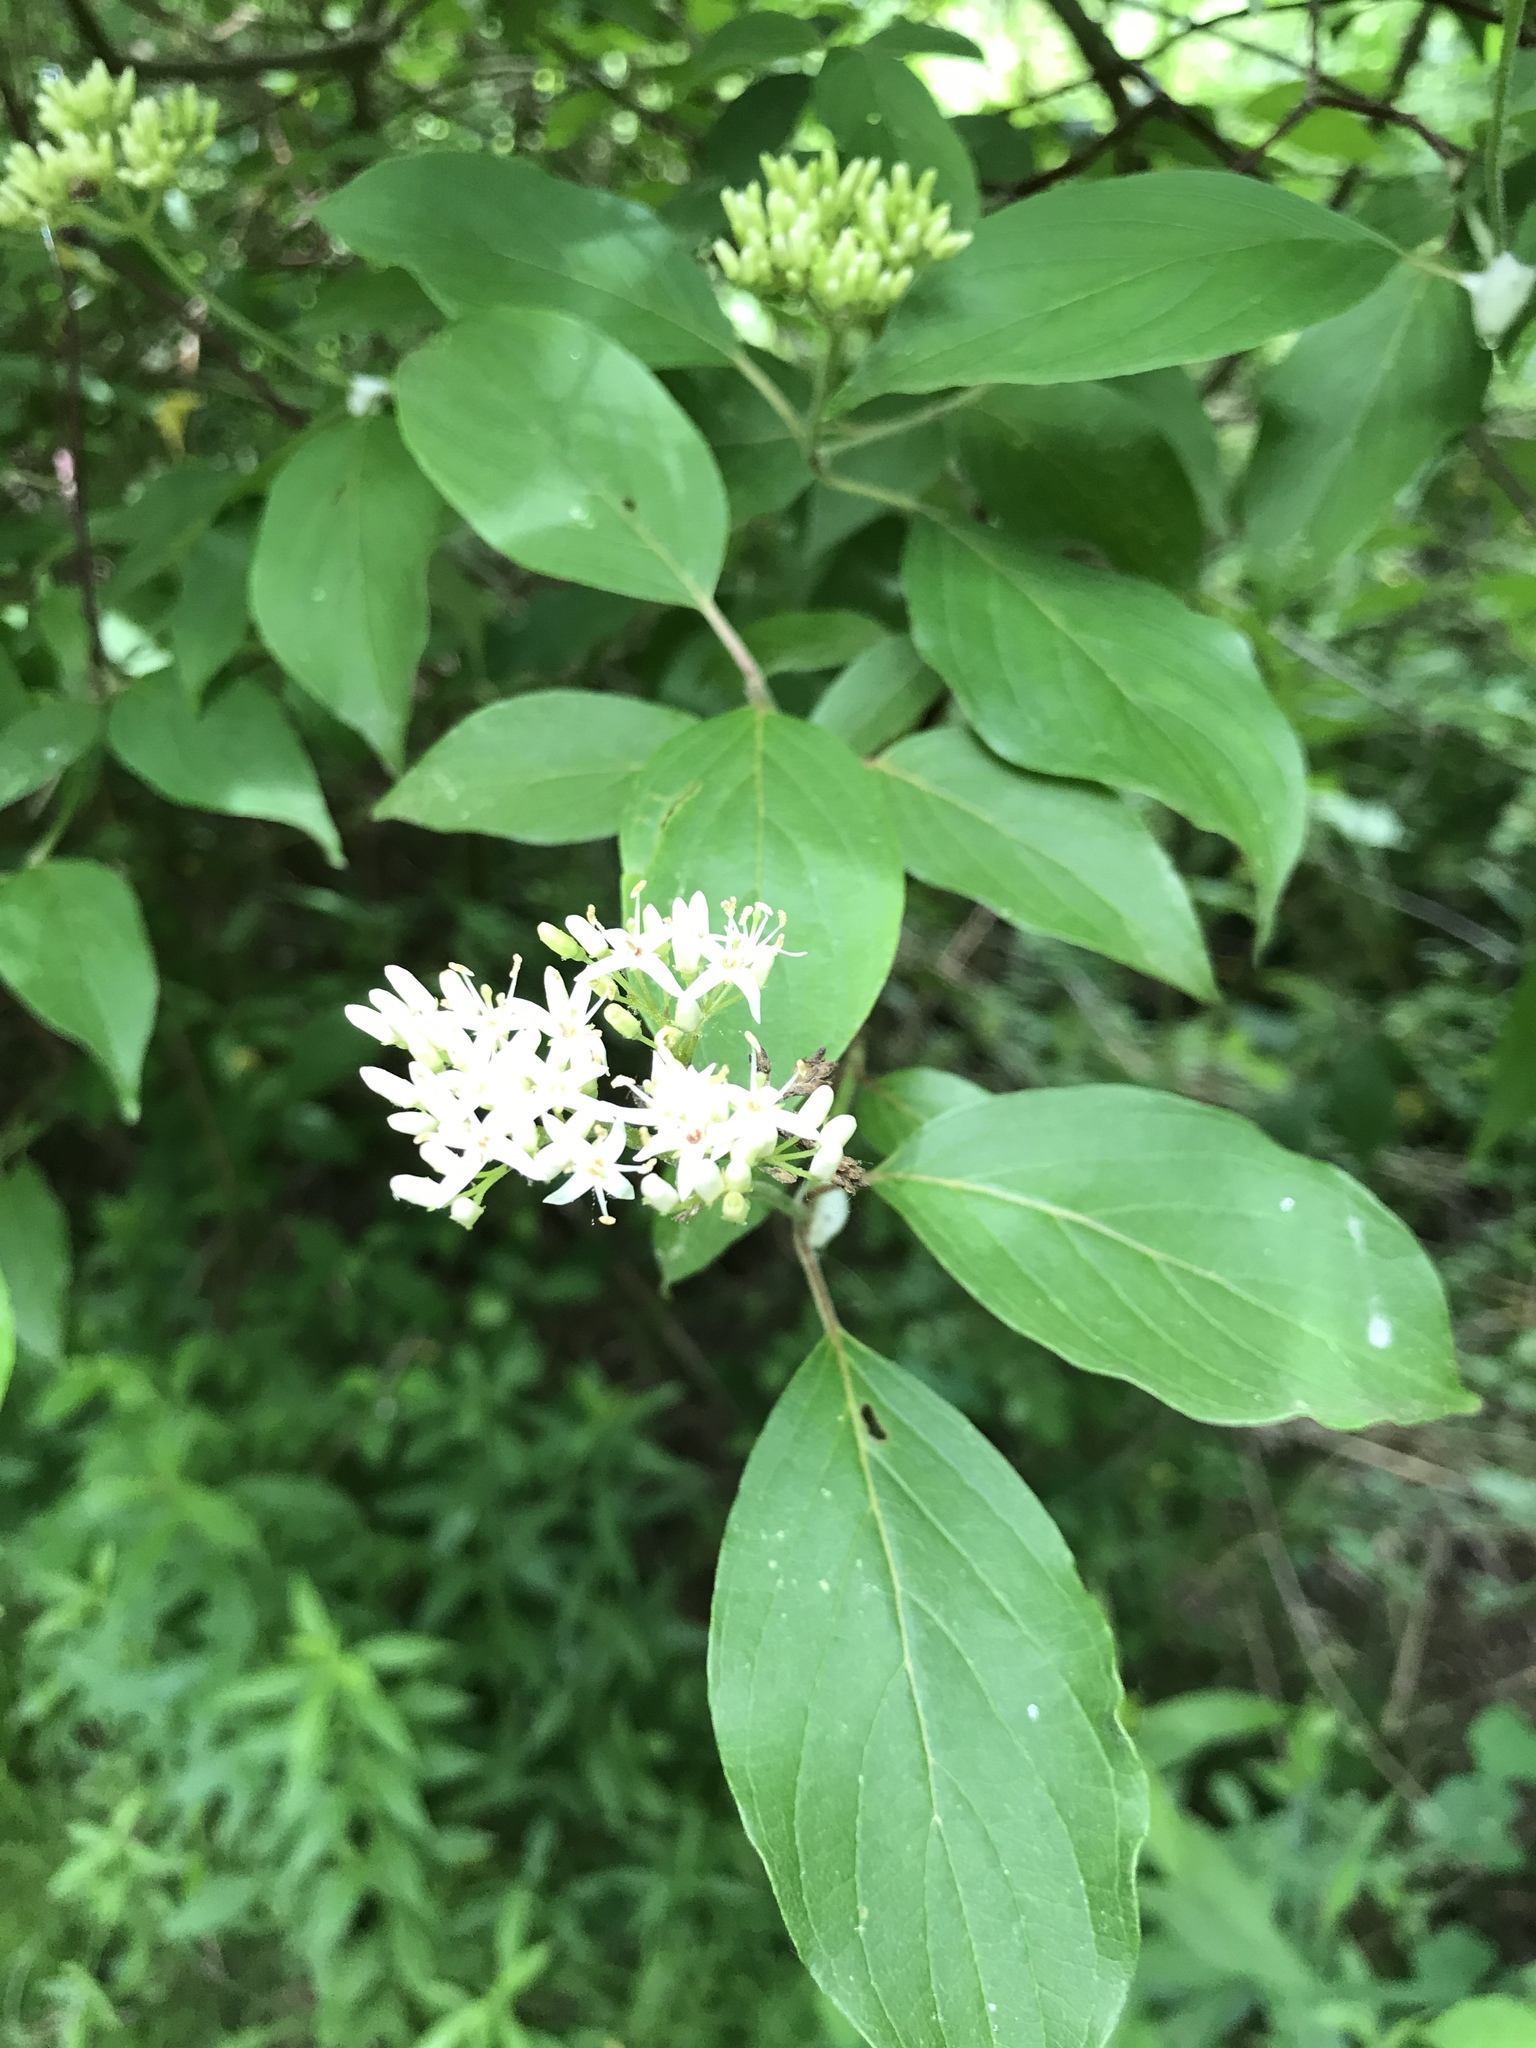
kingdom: Plantae
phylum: Tracheophyta
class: Magnoliopsida
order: Cornales
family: Cornaceae
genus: Cornus
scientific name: Cornus amomum
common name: Silky dogwood
